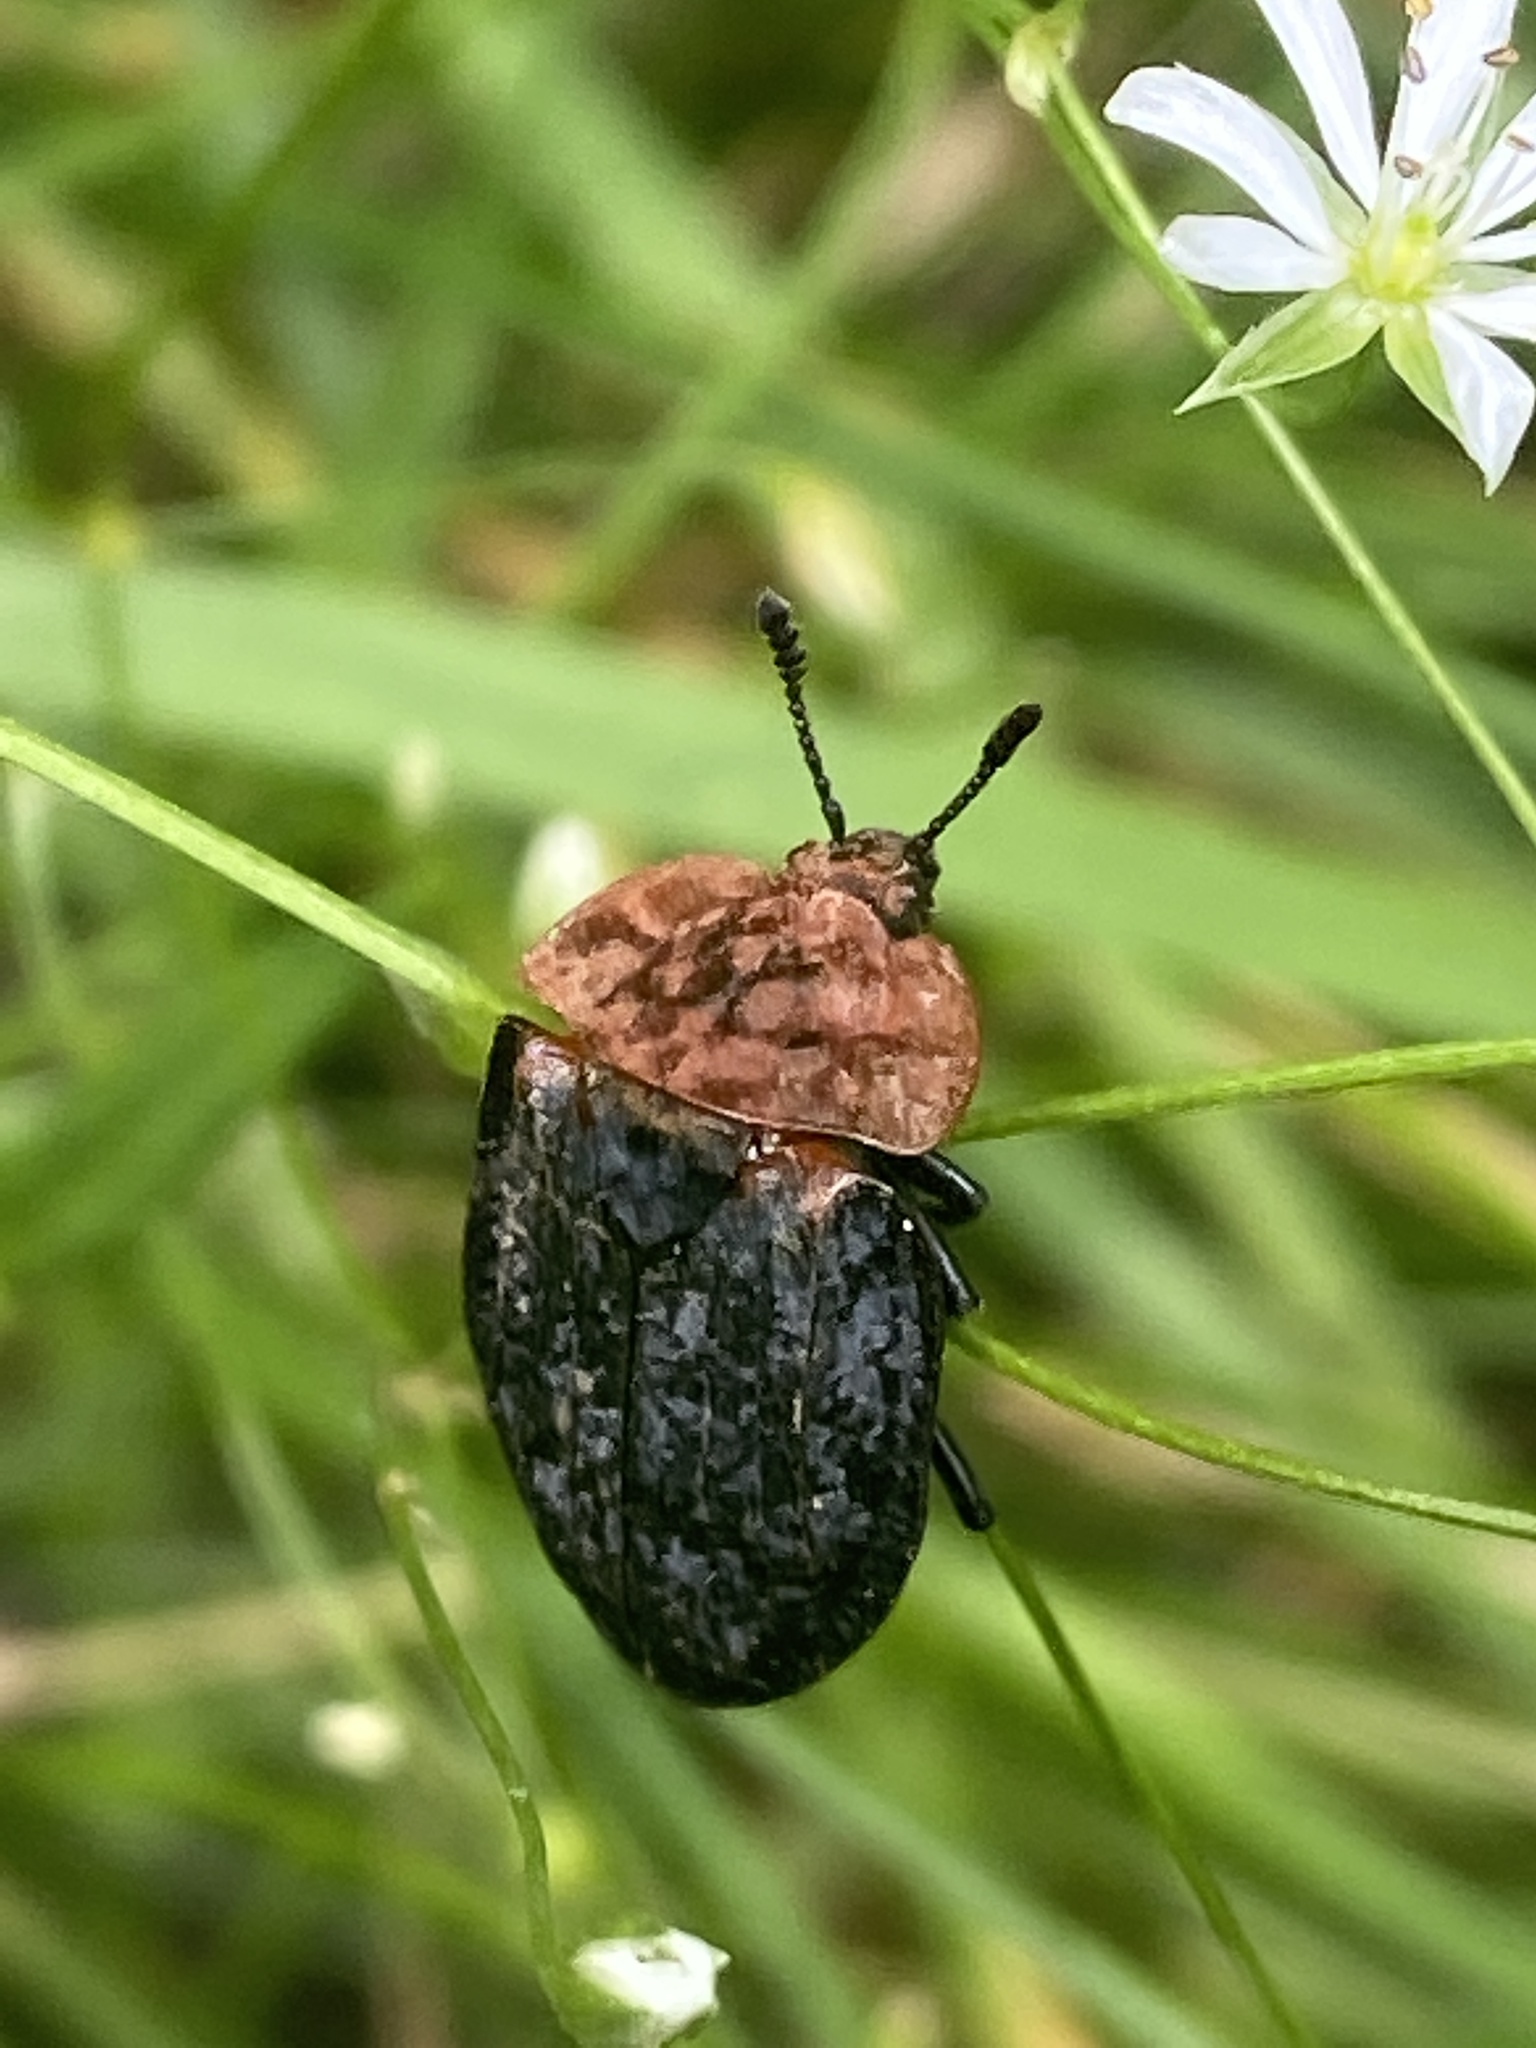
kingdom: Animalia
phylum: Arthropoda
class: Insecta
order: Coleoptera
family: Staphylinidae
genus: Oiceoptoma
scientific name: Oiceoptoma thoracicum
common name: Red-breasted carrion beetle
